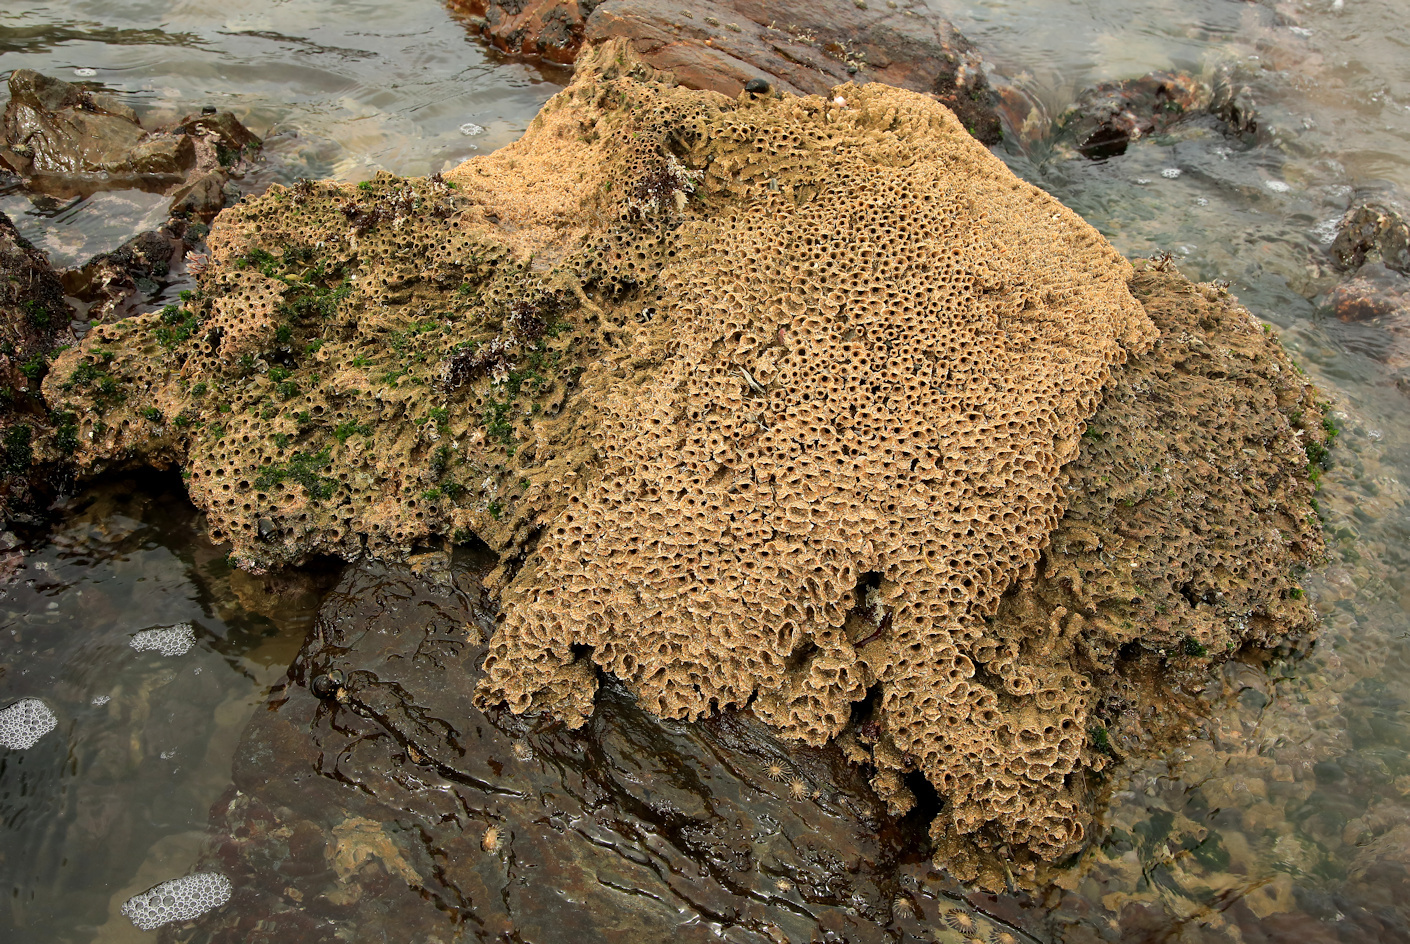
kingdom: Animalia
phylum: Annelida
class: Polychaeta
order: Sabellida
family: Sabellariidae
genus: Gunnarea
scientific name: Gunnarea gaimardi
